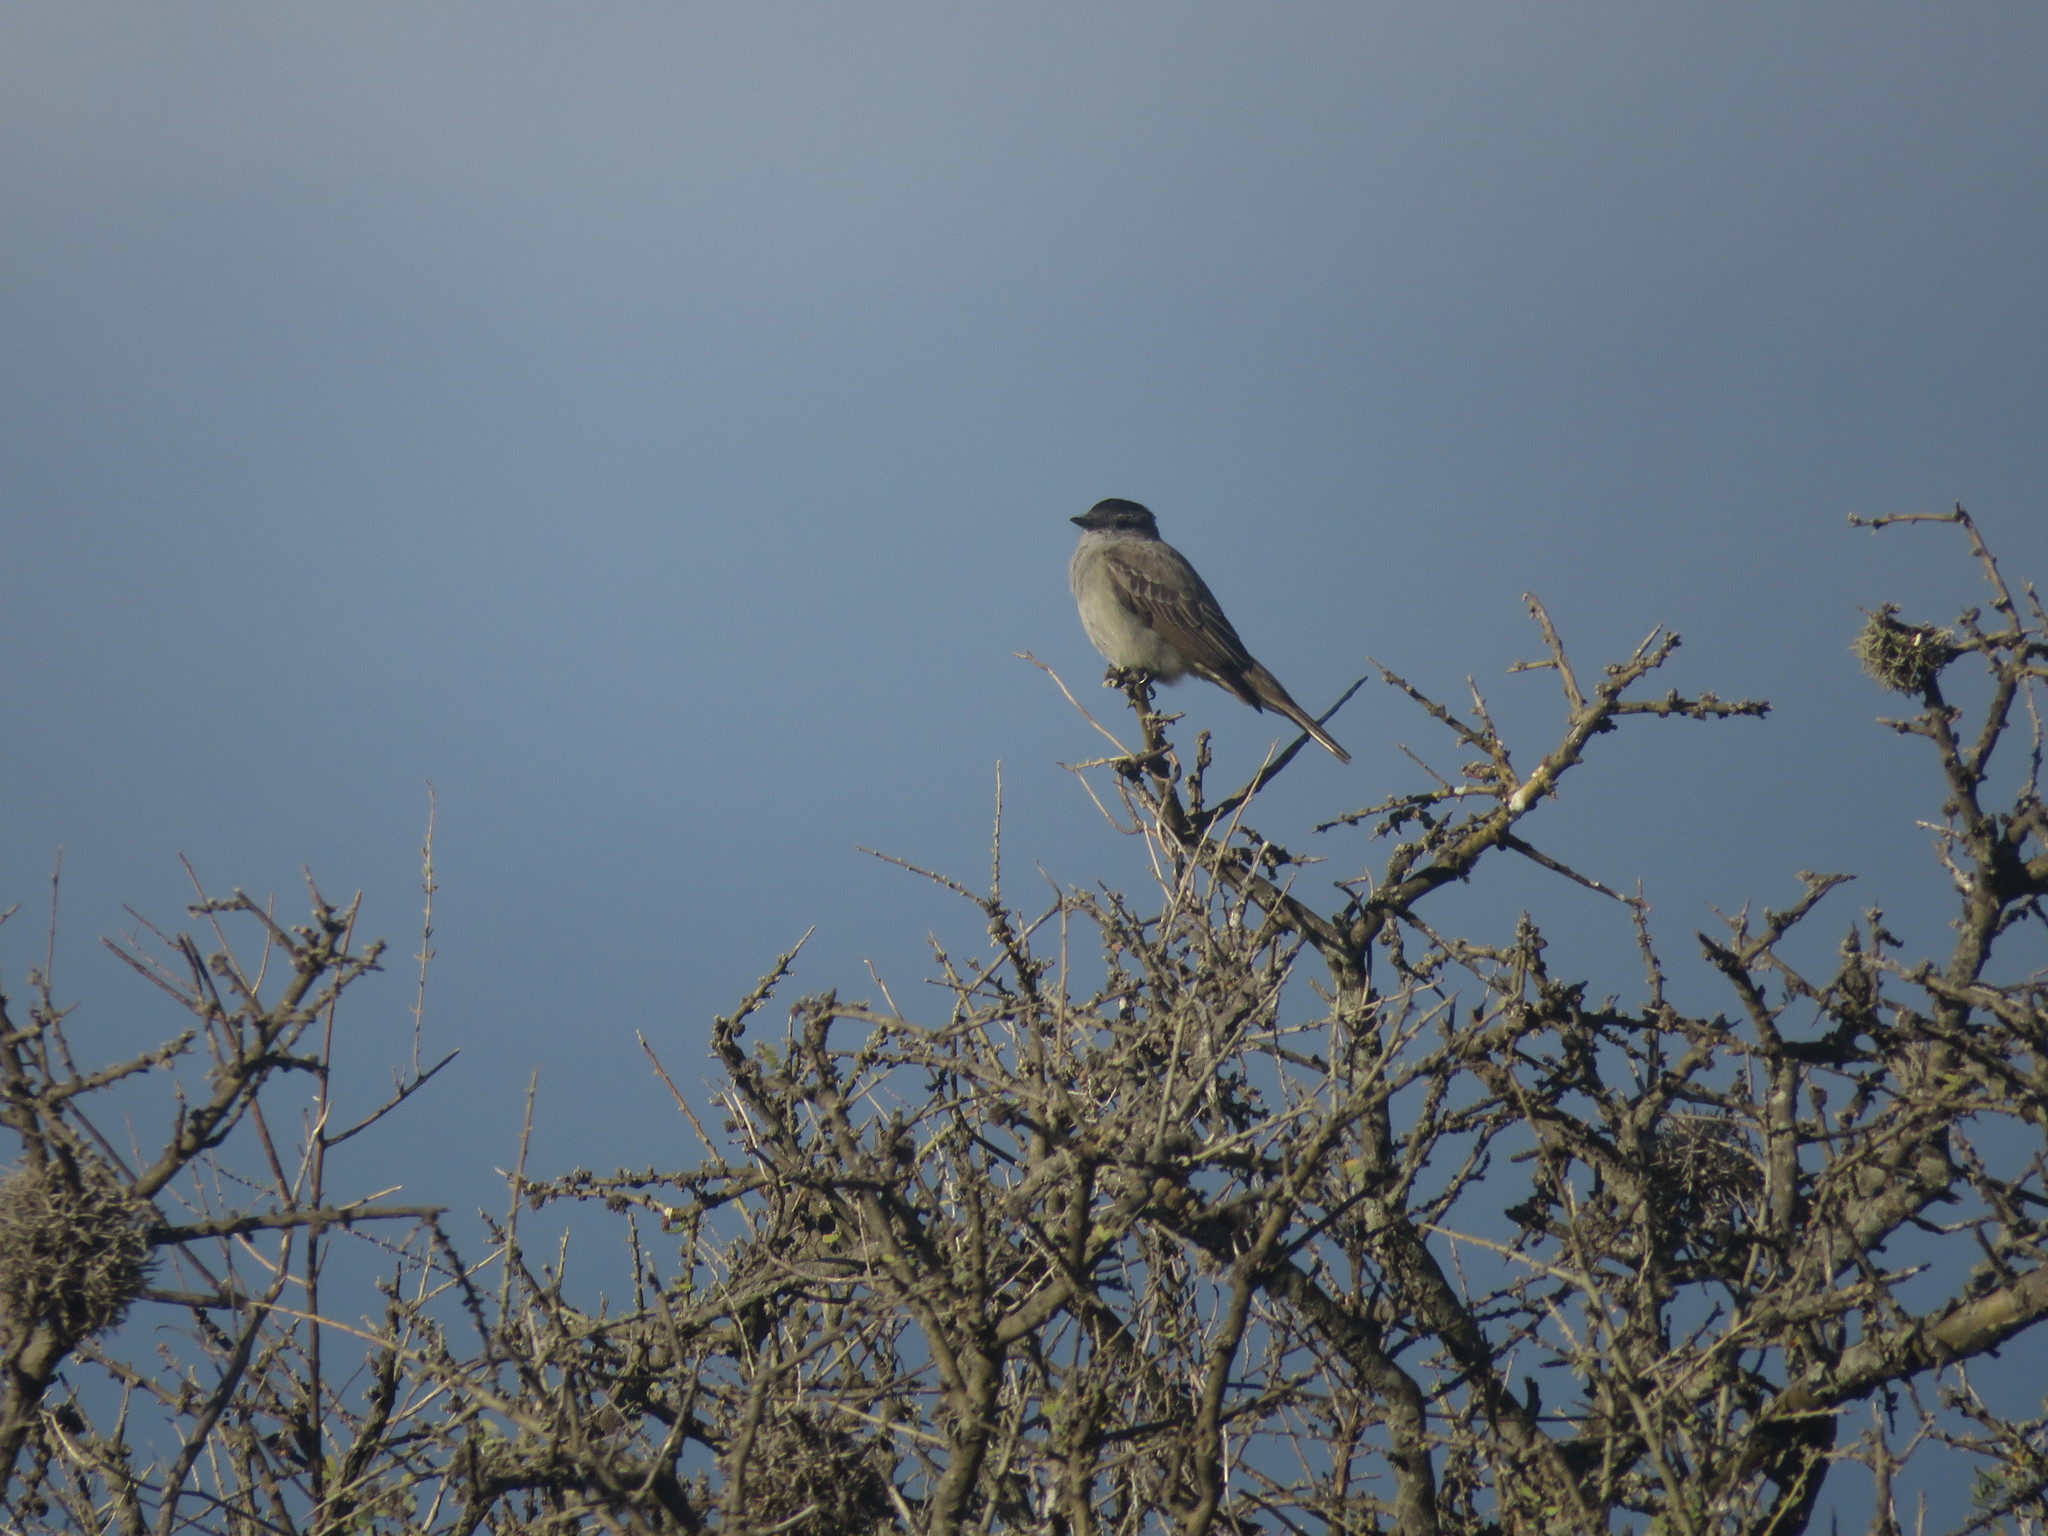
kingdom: Animalia
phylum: Chordata
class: Aves
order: Passeriformes
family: Tyrannidae
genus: Empidonomus
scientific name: Empidonomus aurantioatrocristatus
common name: Crowned slaty flycatcher
